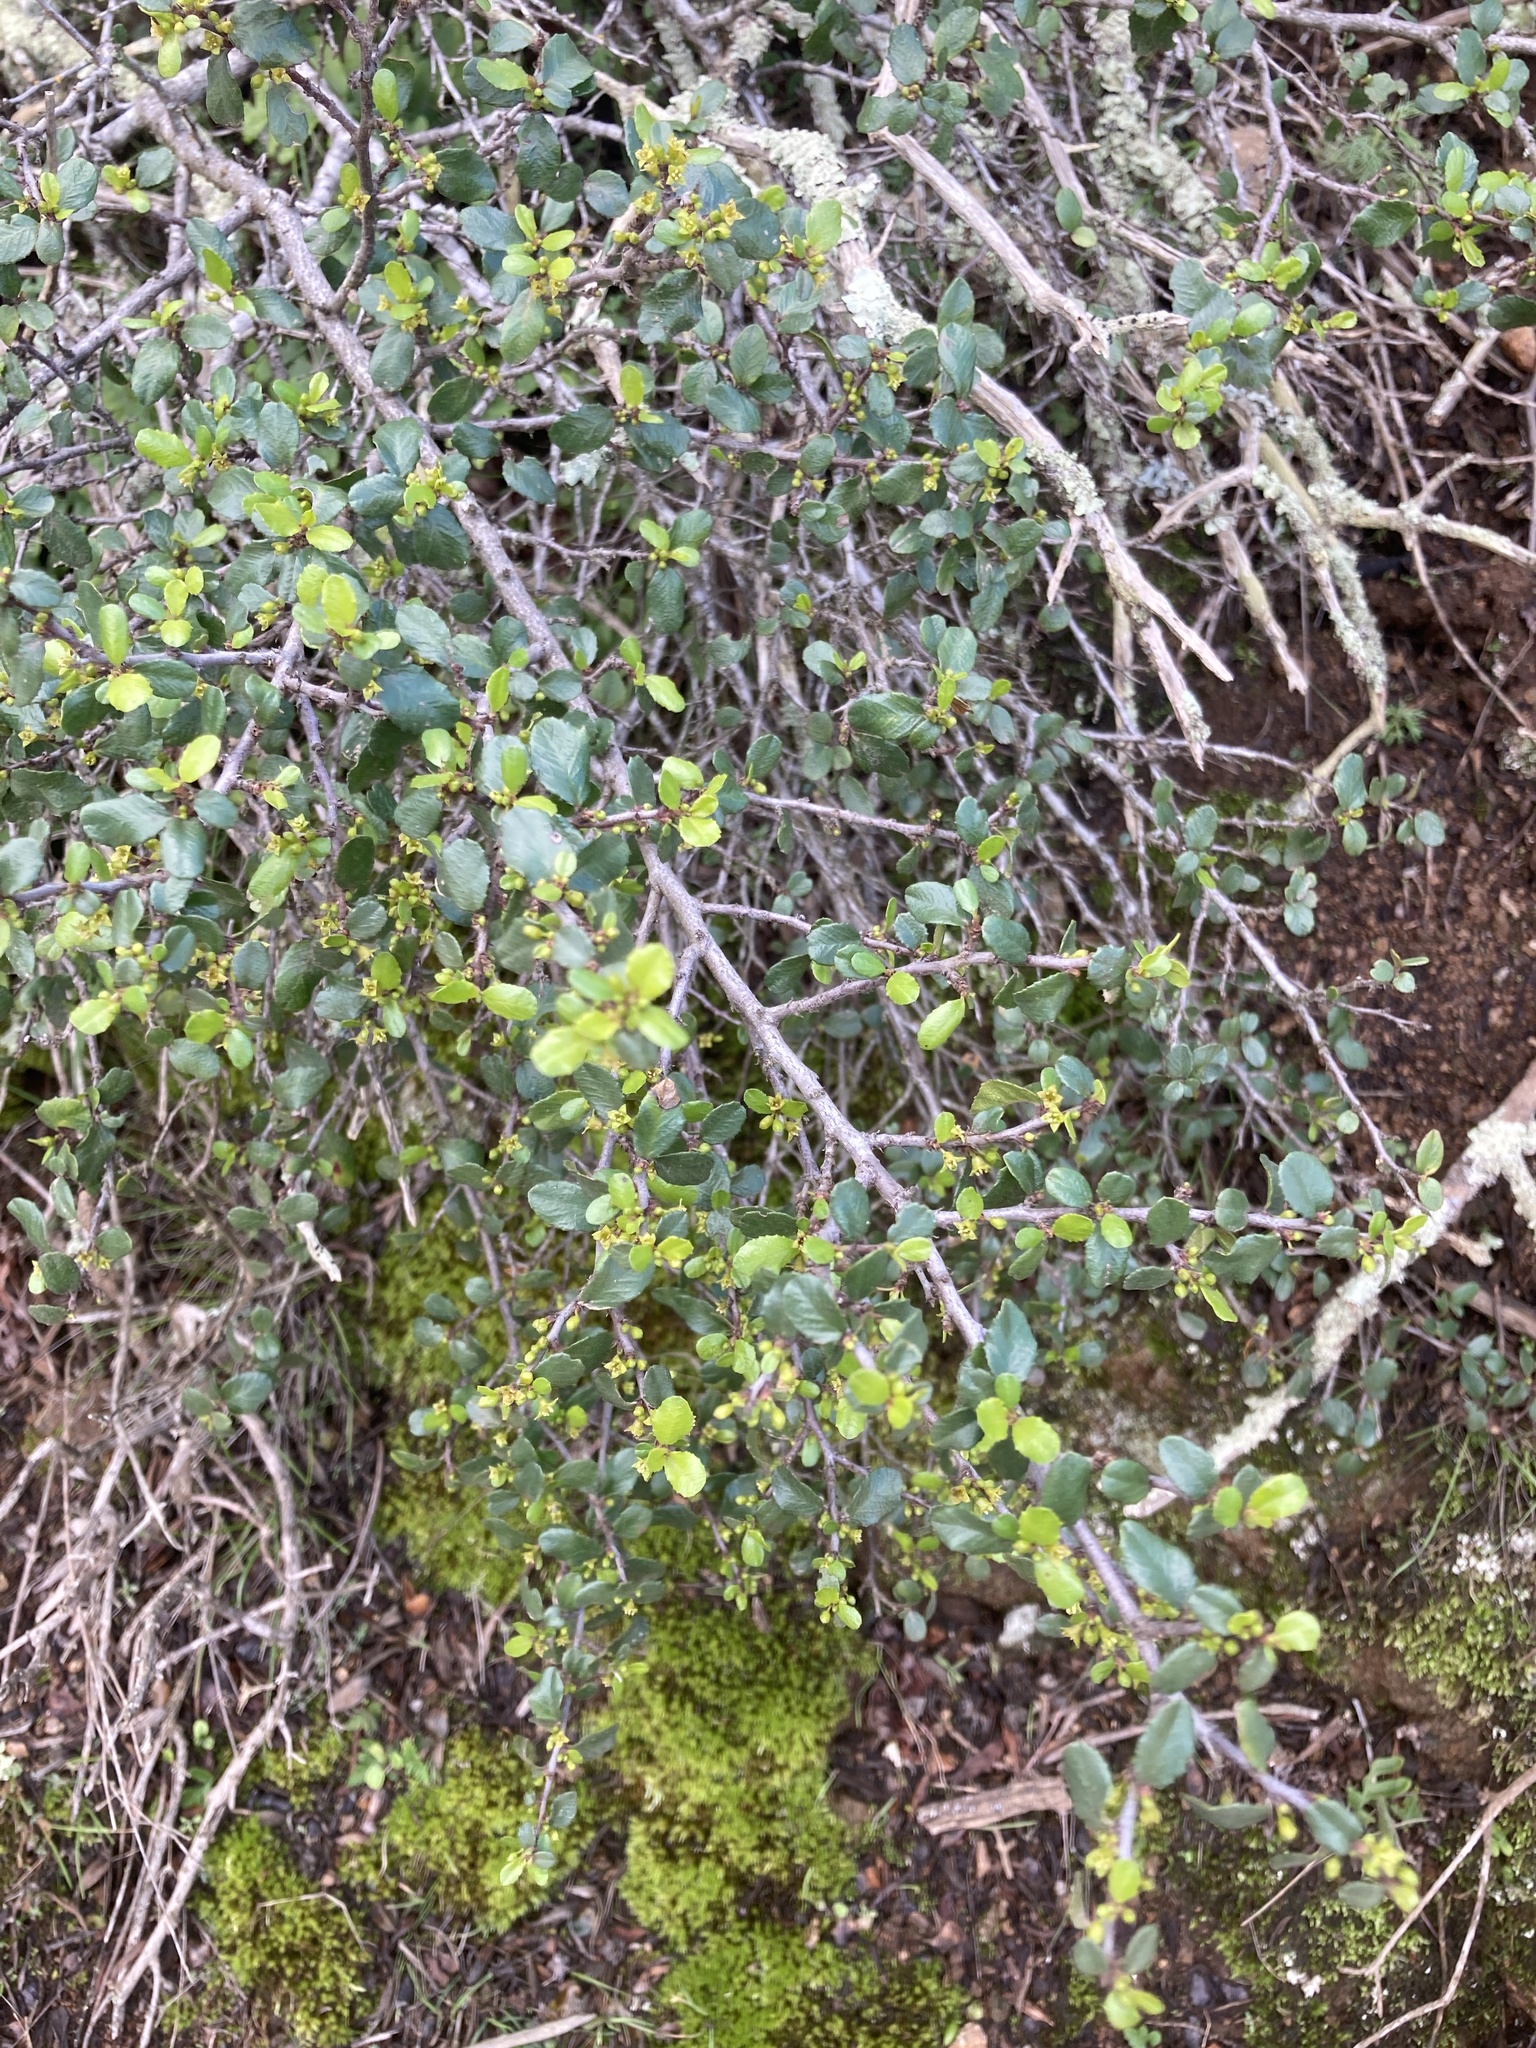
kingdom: Plantae
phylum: Tracheophyta
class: Magnoliopsida
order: Rosales
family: Rhamnaceae
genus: Endotropis
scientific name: Endotropis crocea
